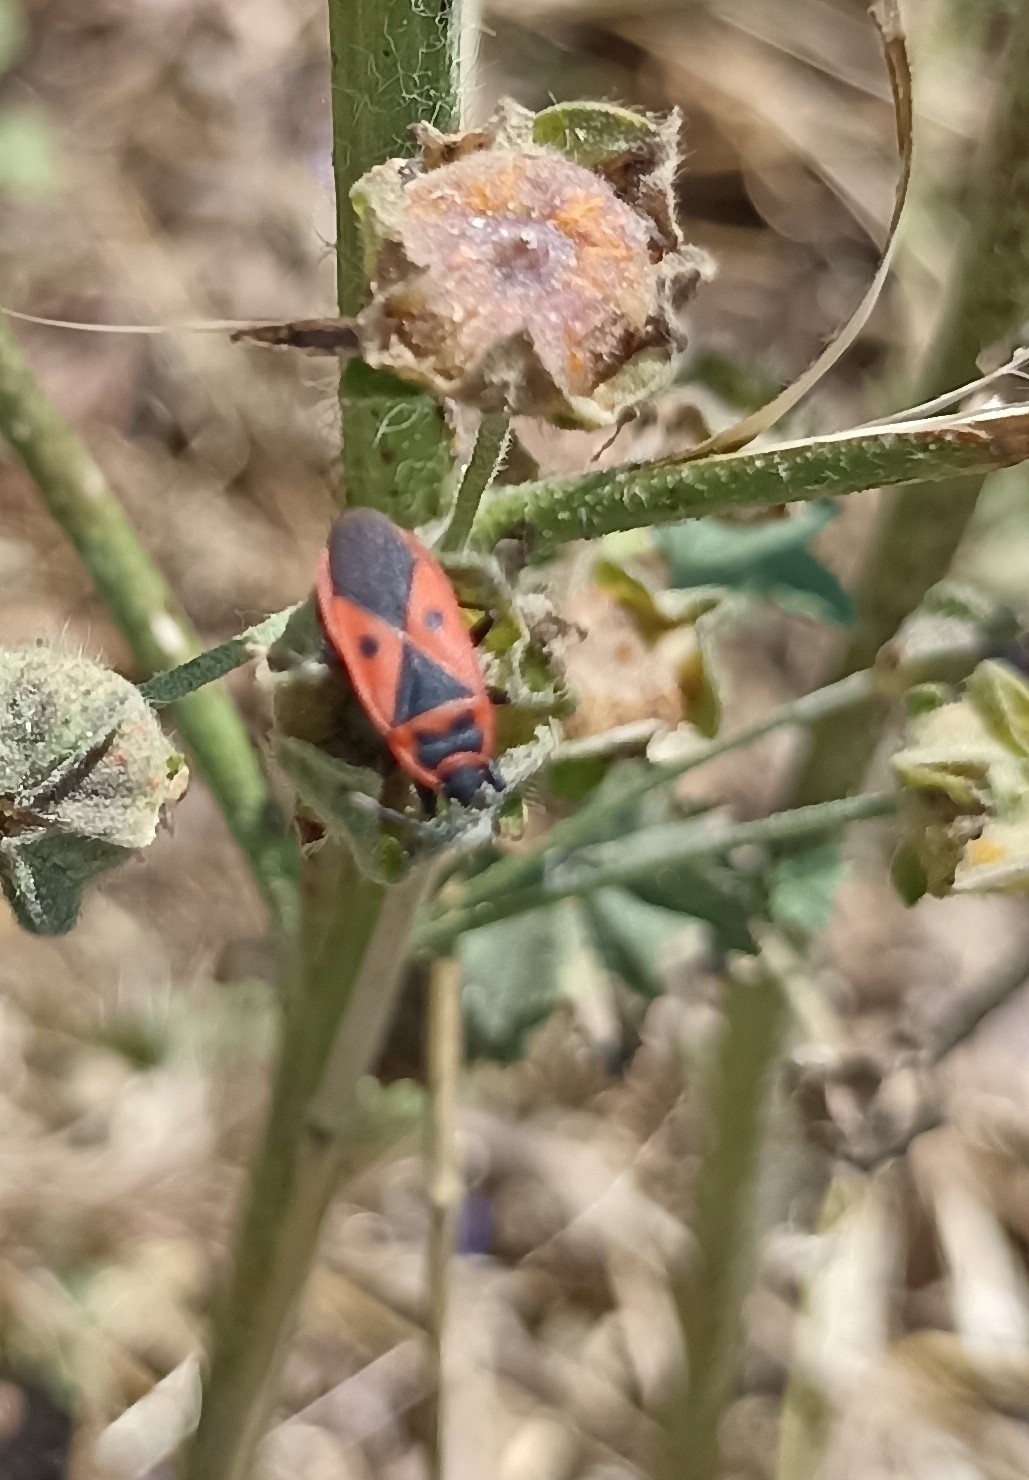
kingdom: Animalia
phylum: Arthropoda
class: Insecta
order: Hemiptera
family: Pyrrhocoridae
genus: Scantius
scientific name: Scantius aegyptius
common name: Red bug
